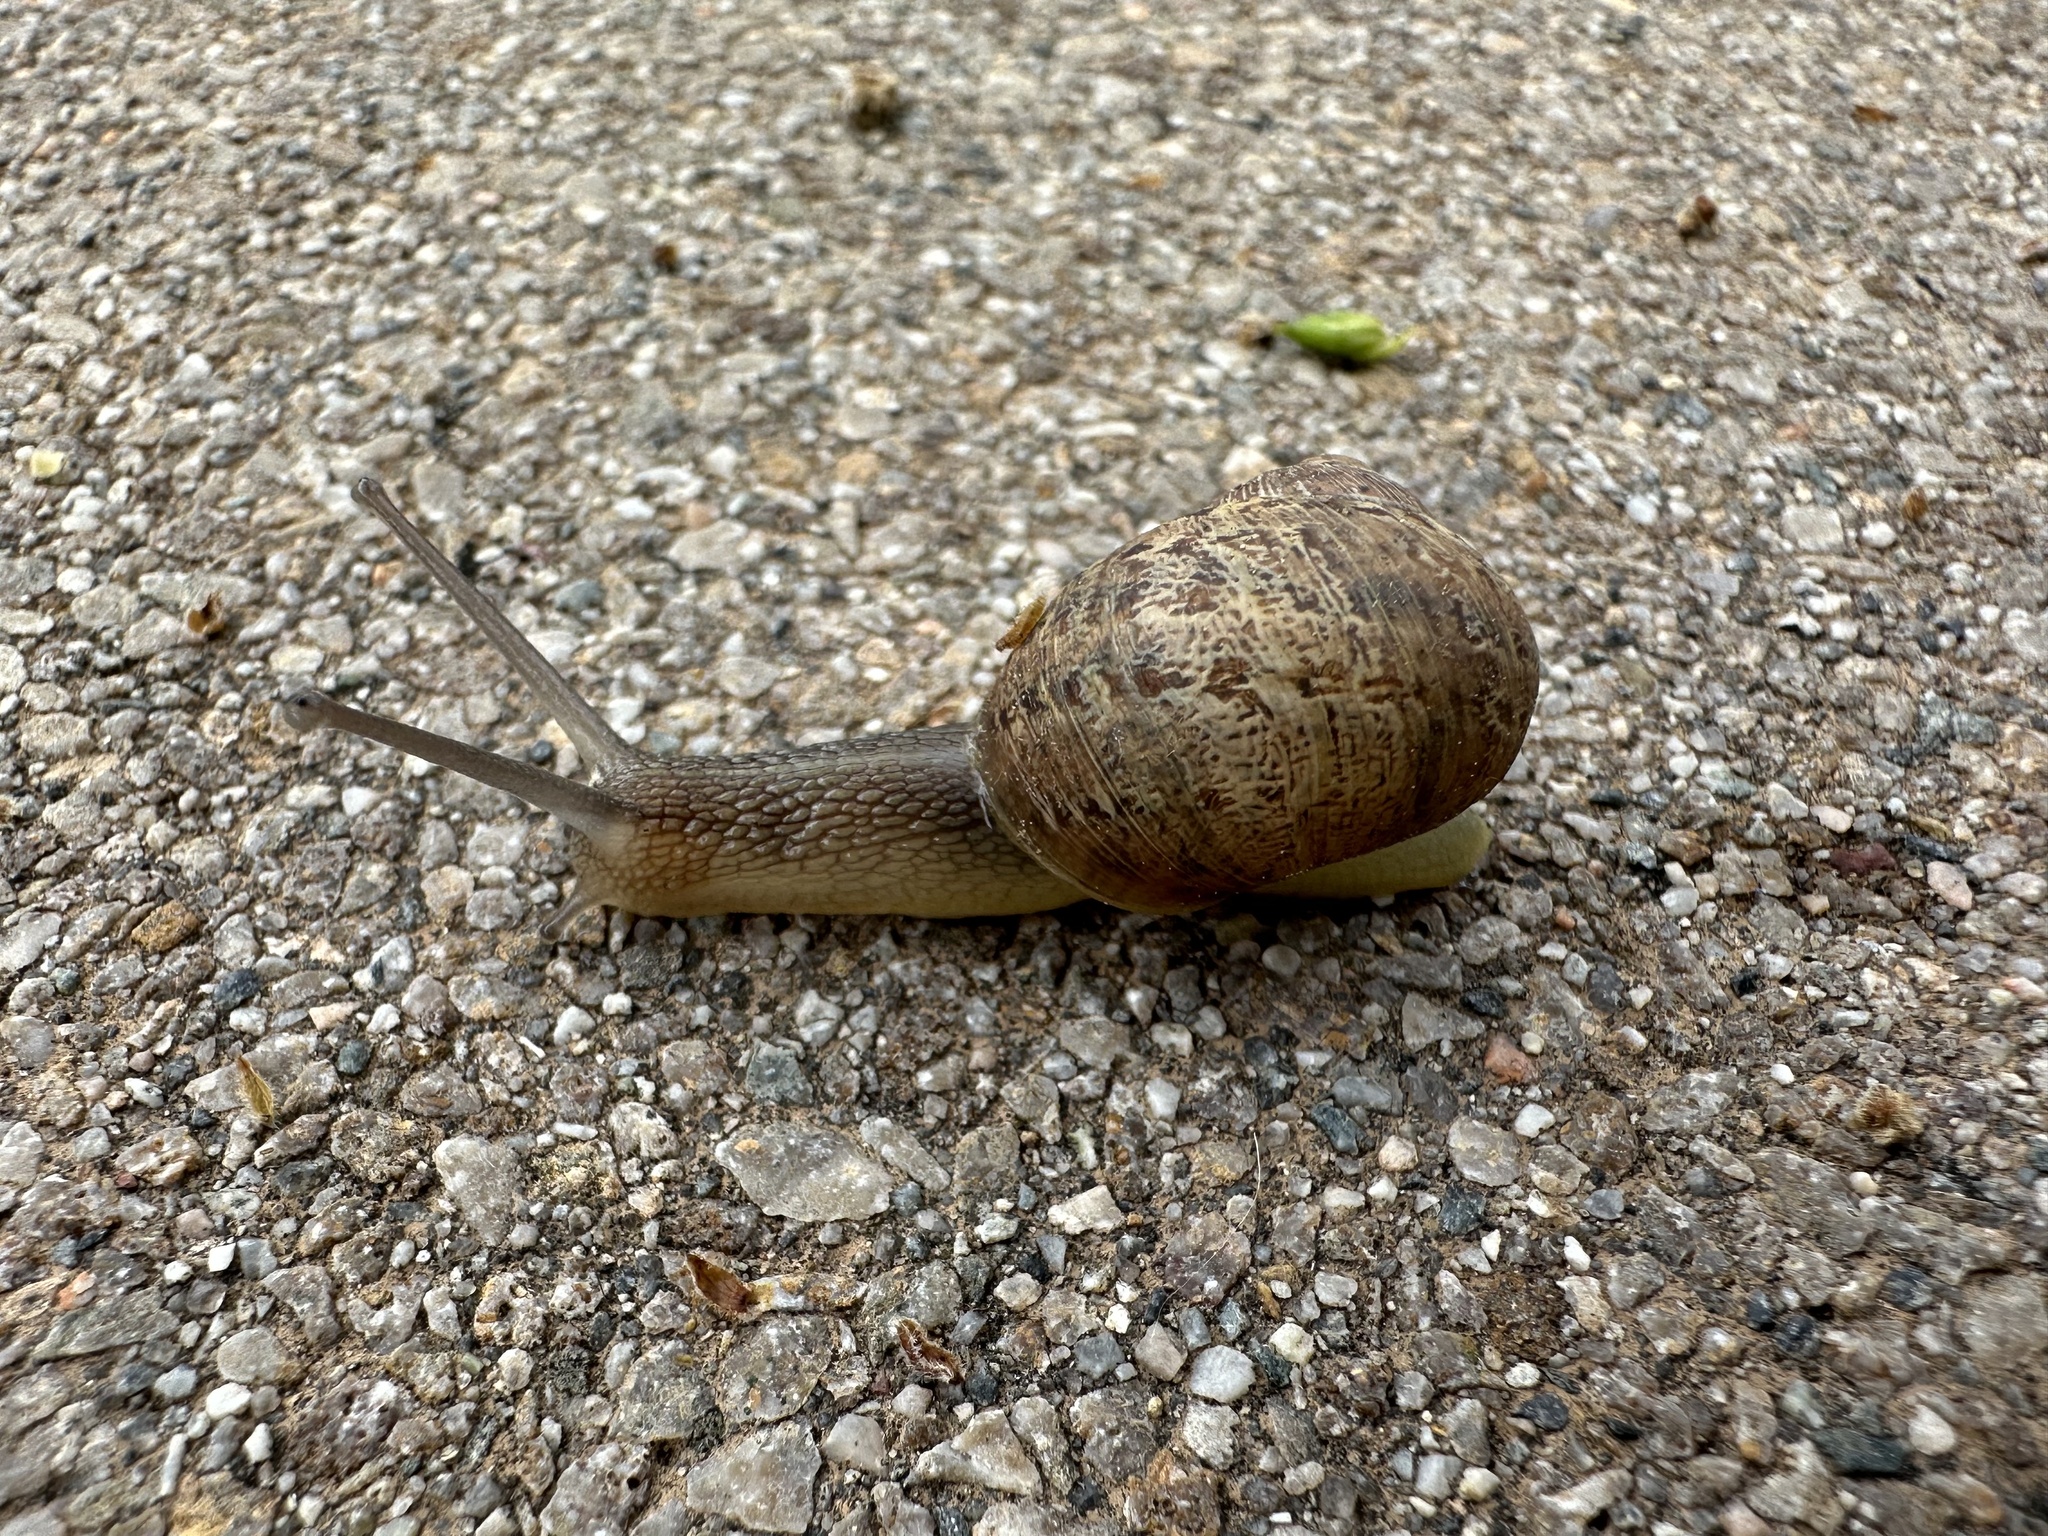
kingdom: Animalia
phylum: Mollusca
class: Gastropoda
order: Stylommatophora
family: Helicidae
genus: Cornu
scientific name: Cornu aspersum
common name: Brown garden snail
